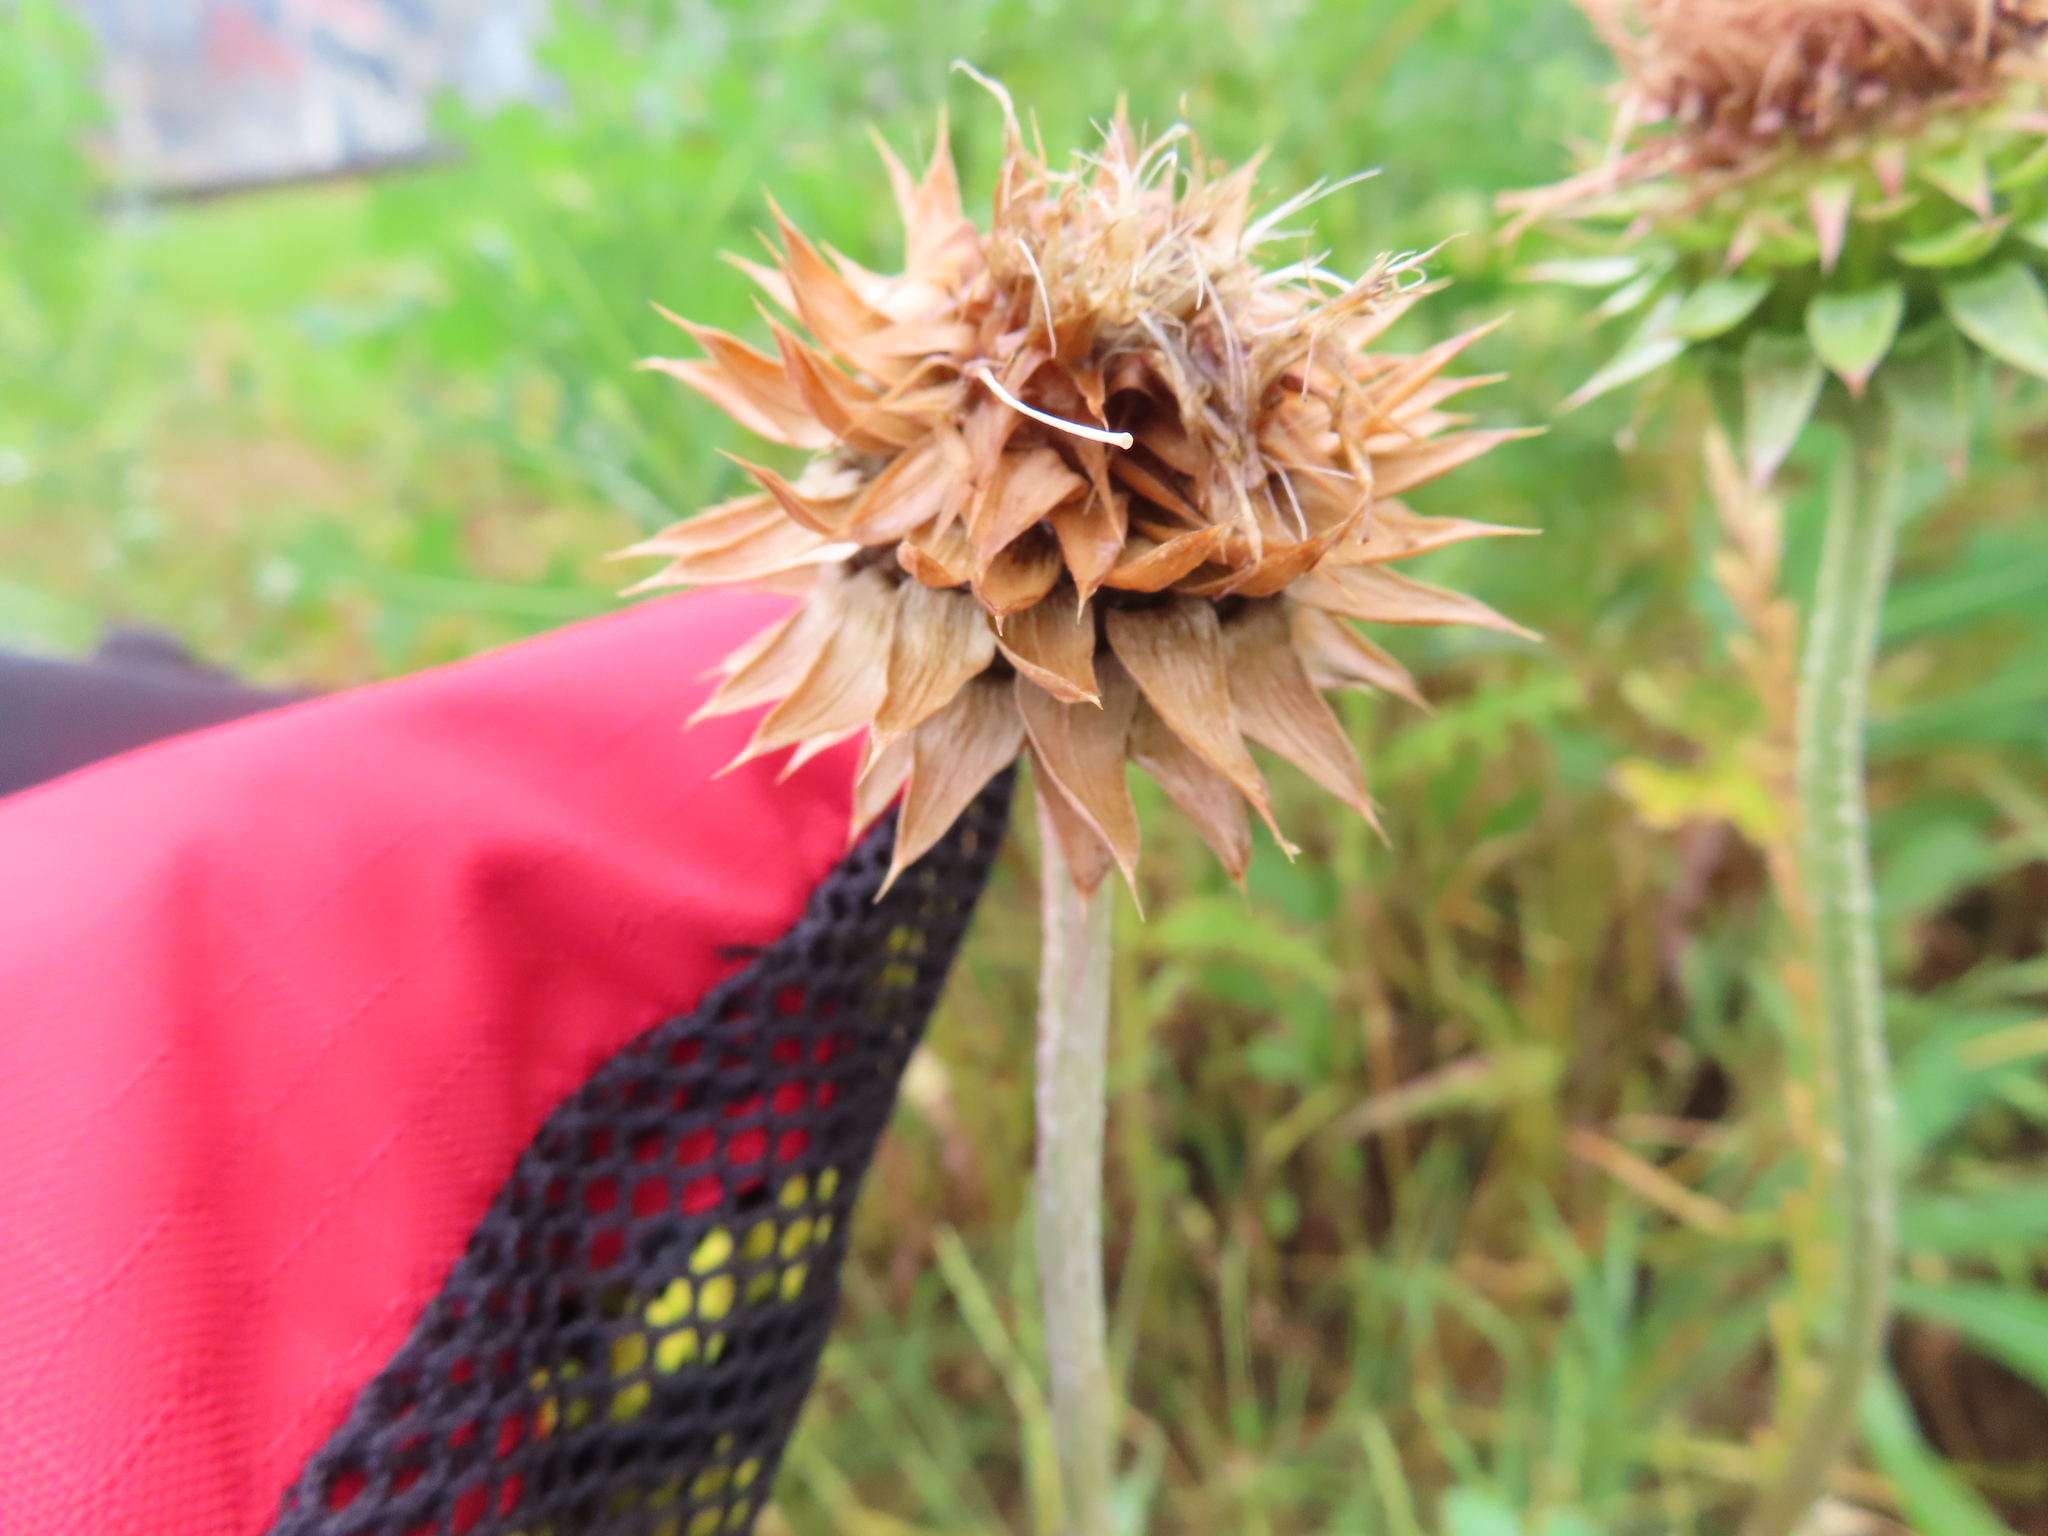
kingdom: Plantae
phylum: Tracheophyta
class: Magnoliopsida
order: Asterales
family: Asteraceae
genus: Carduus
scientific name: Carduus nutans
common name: Musk thistle
